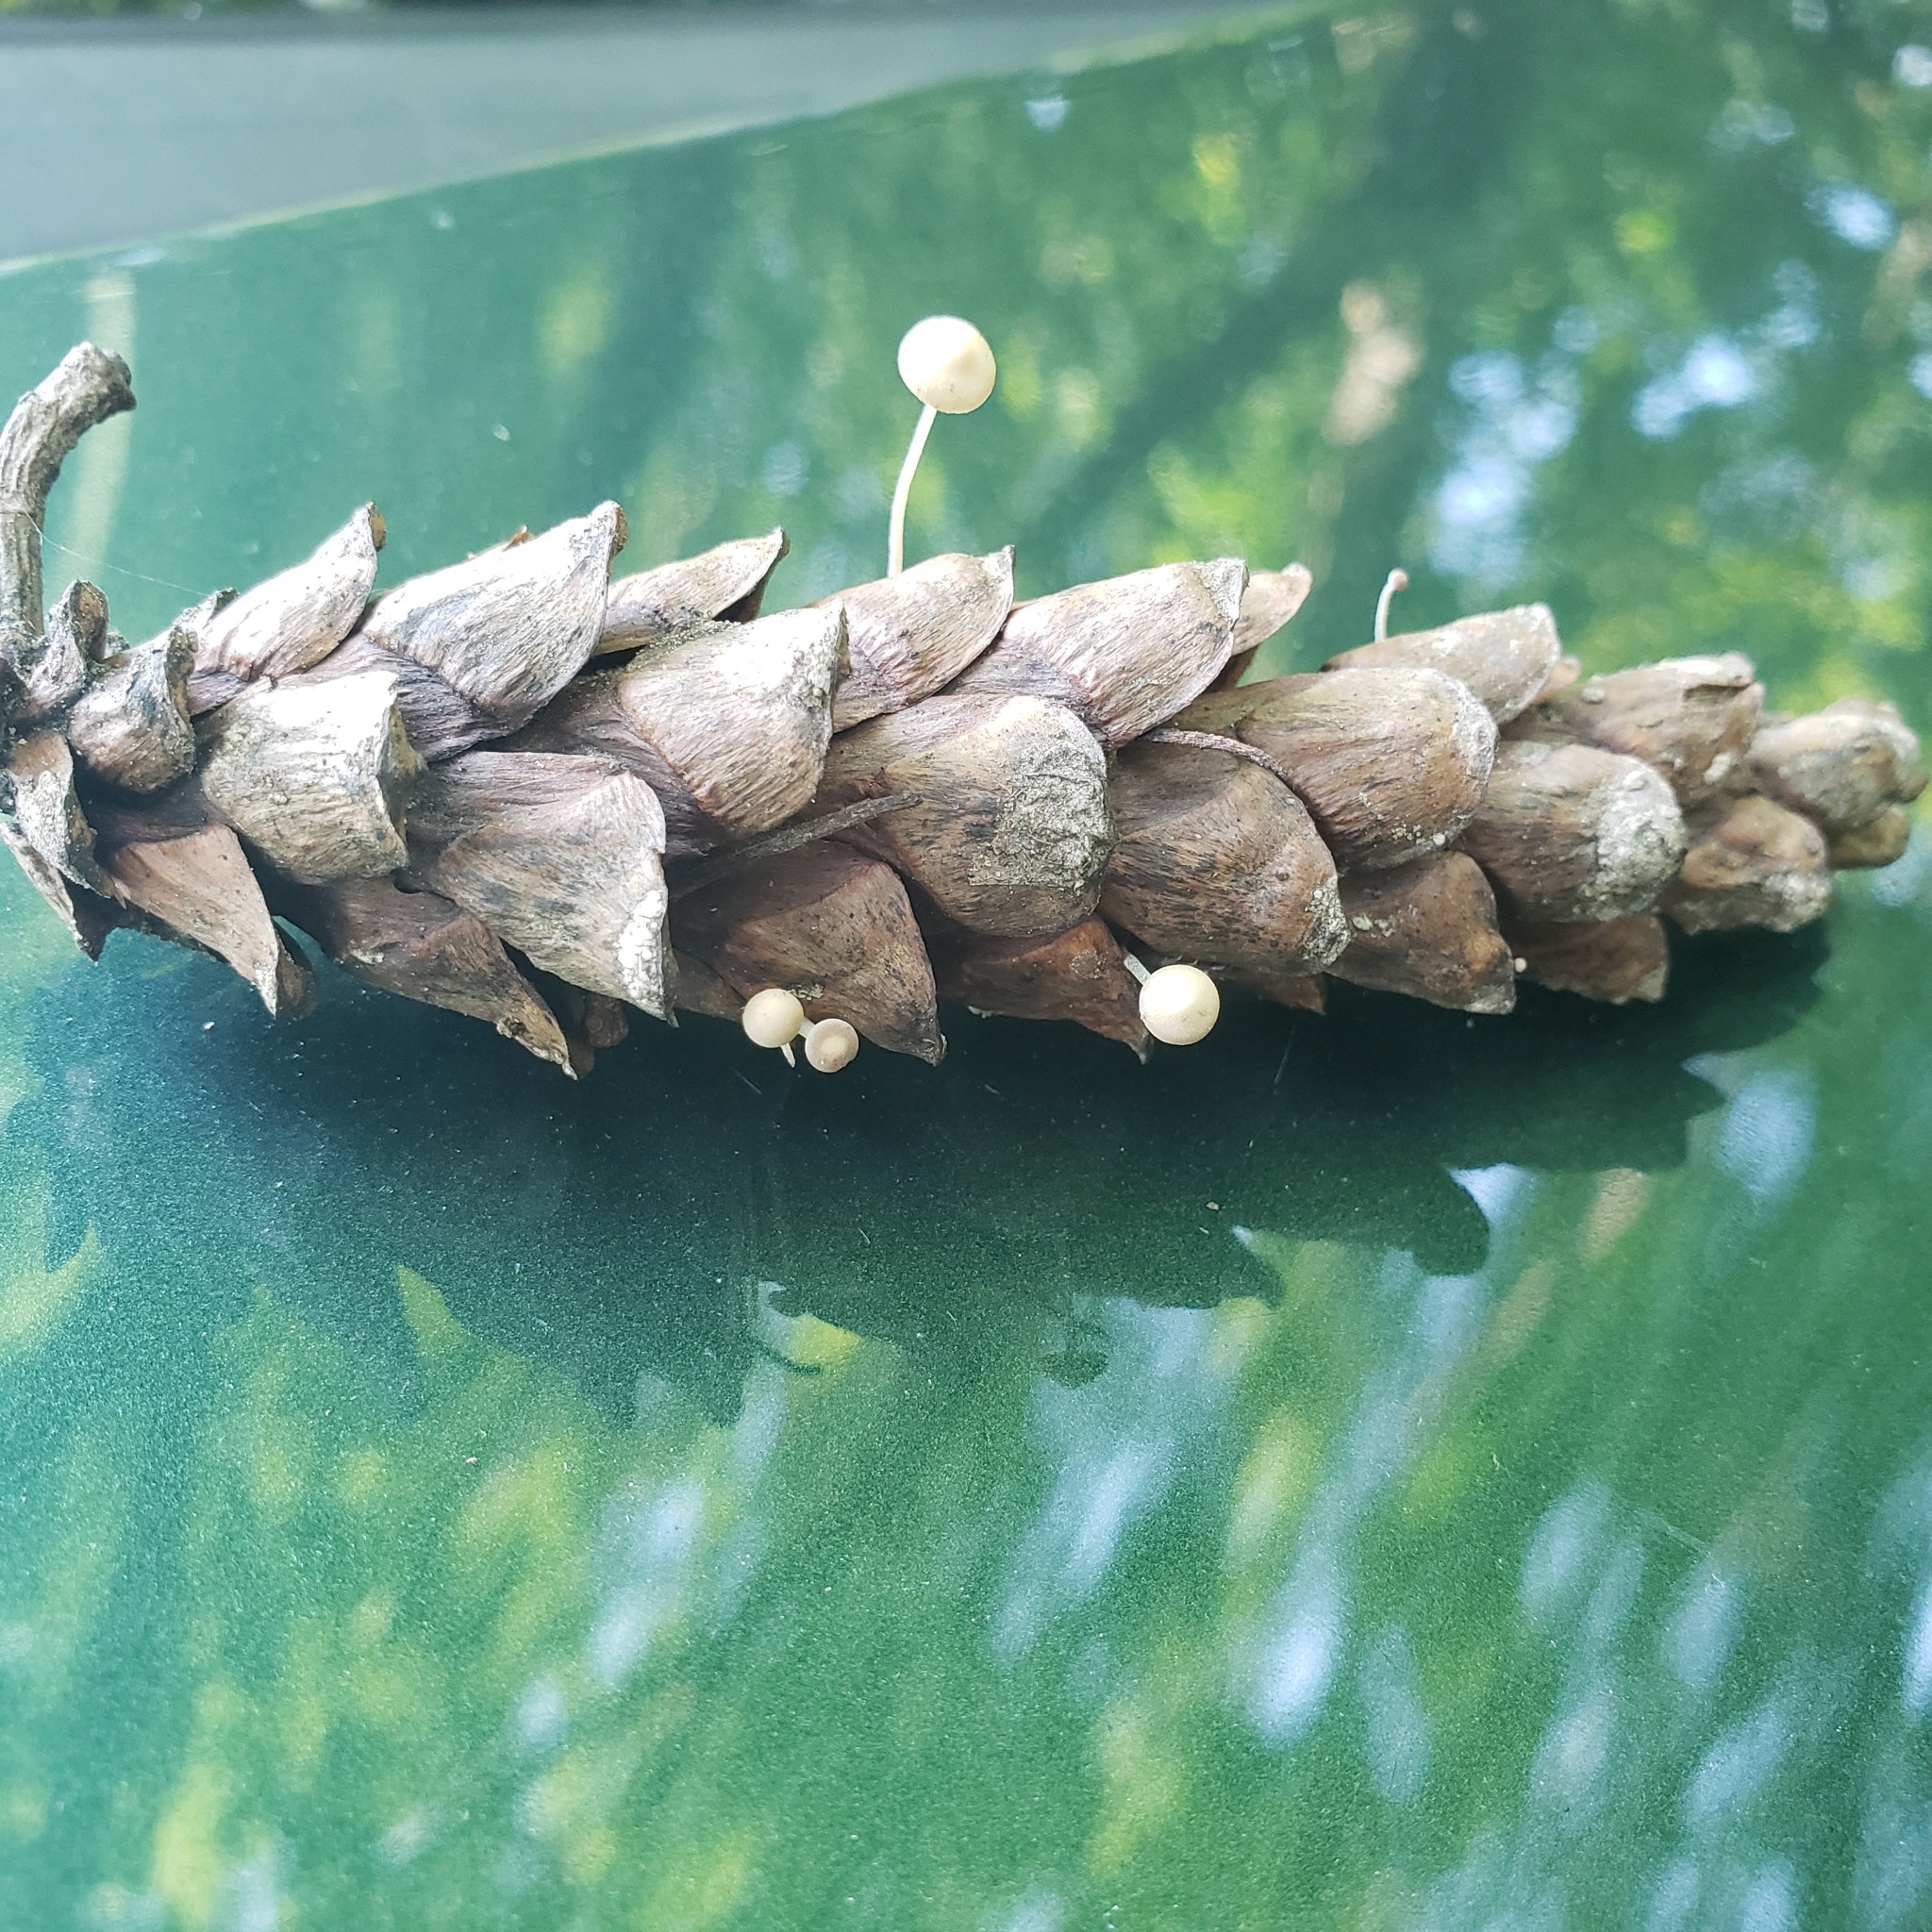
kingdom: Fungi
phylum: Basidiomycota
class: Agaricomycetes
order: Agaricales
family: Marasmiaceae
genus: Baeospora
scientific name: Baeospora myosura
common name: Conifercone cap
